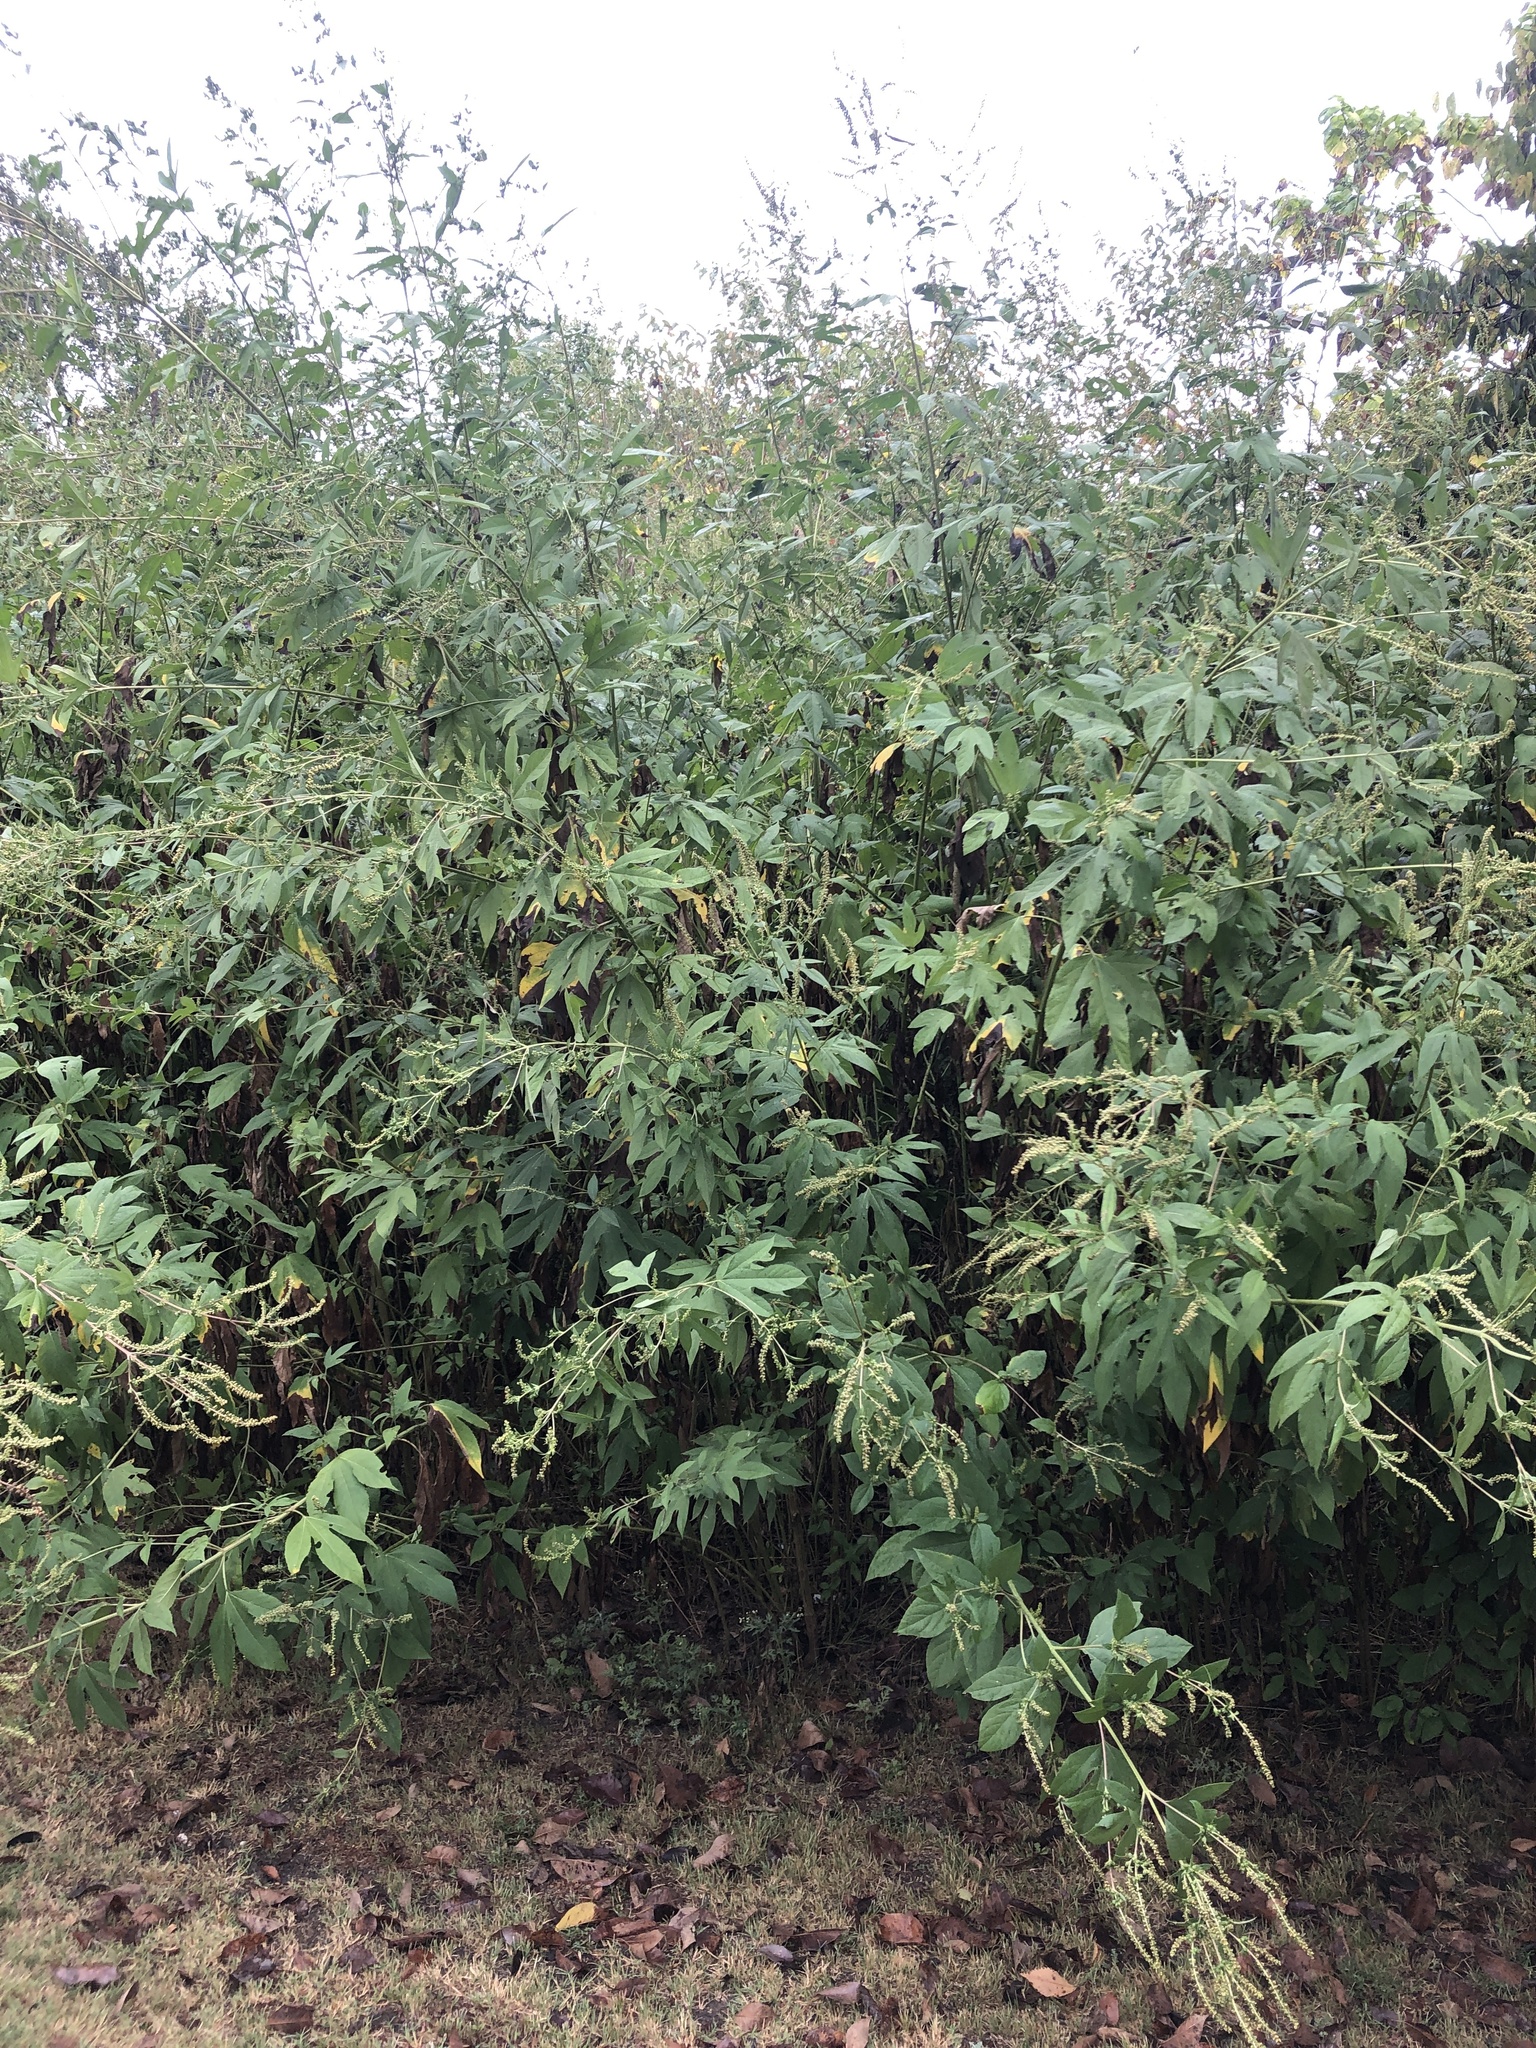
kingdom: Plantae
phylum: Tracheophyta
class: Magnoliopsida
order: Asterales
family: Asteraceae
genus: Ambrosia
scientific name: Ambrosia trifida
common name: Giant ragweed
